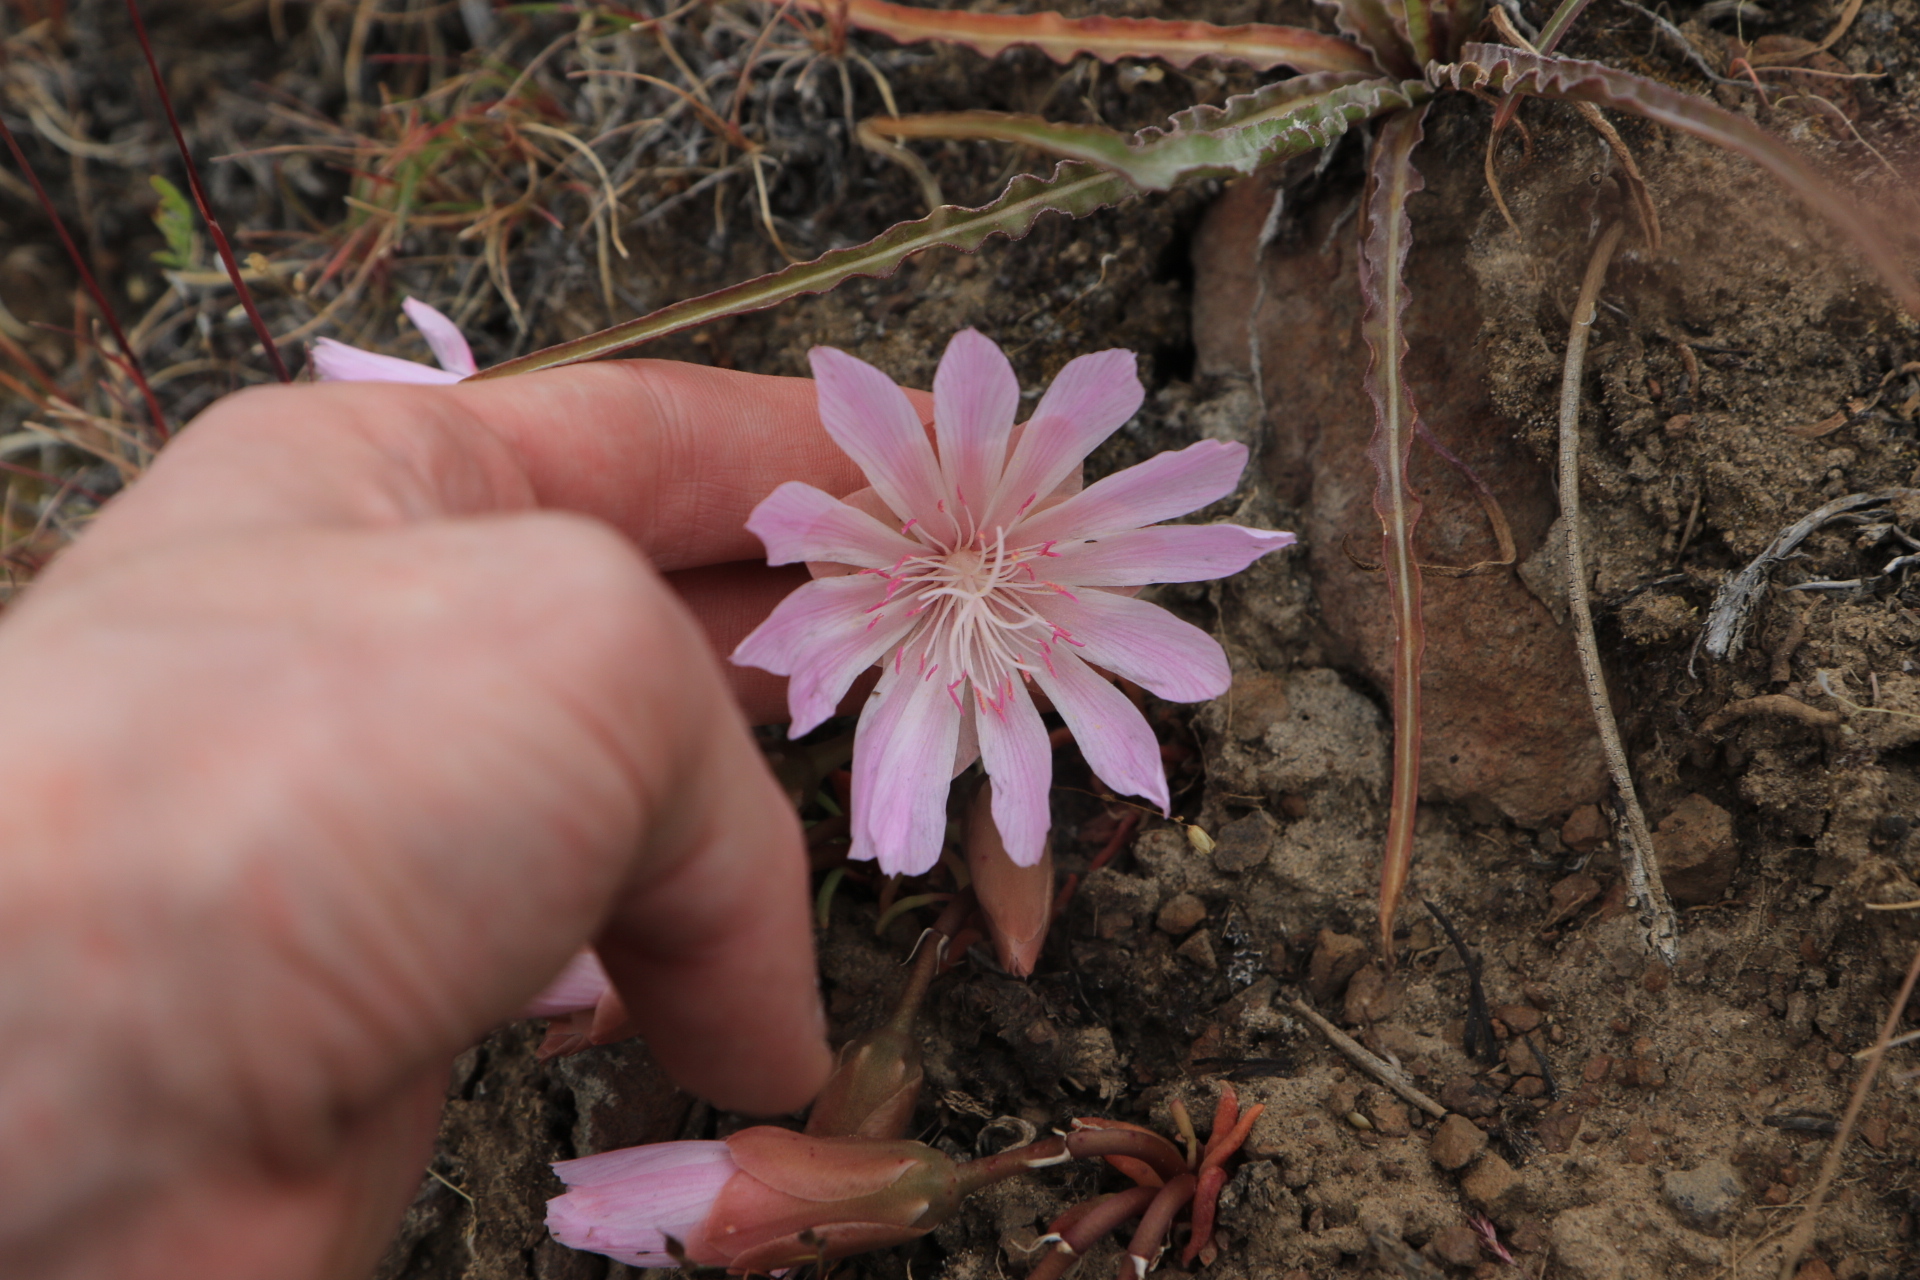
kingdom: Plantae
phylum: Tracheophyta
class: Magnoliopsida
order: Caryophyllales
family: Montiaceae
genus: Lewisia
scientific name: Lewisia rediviva
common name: Bitter-root
